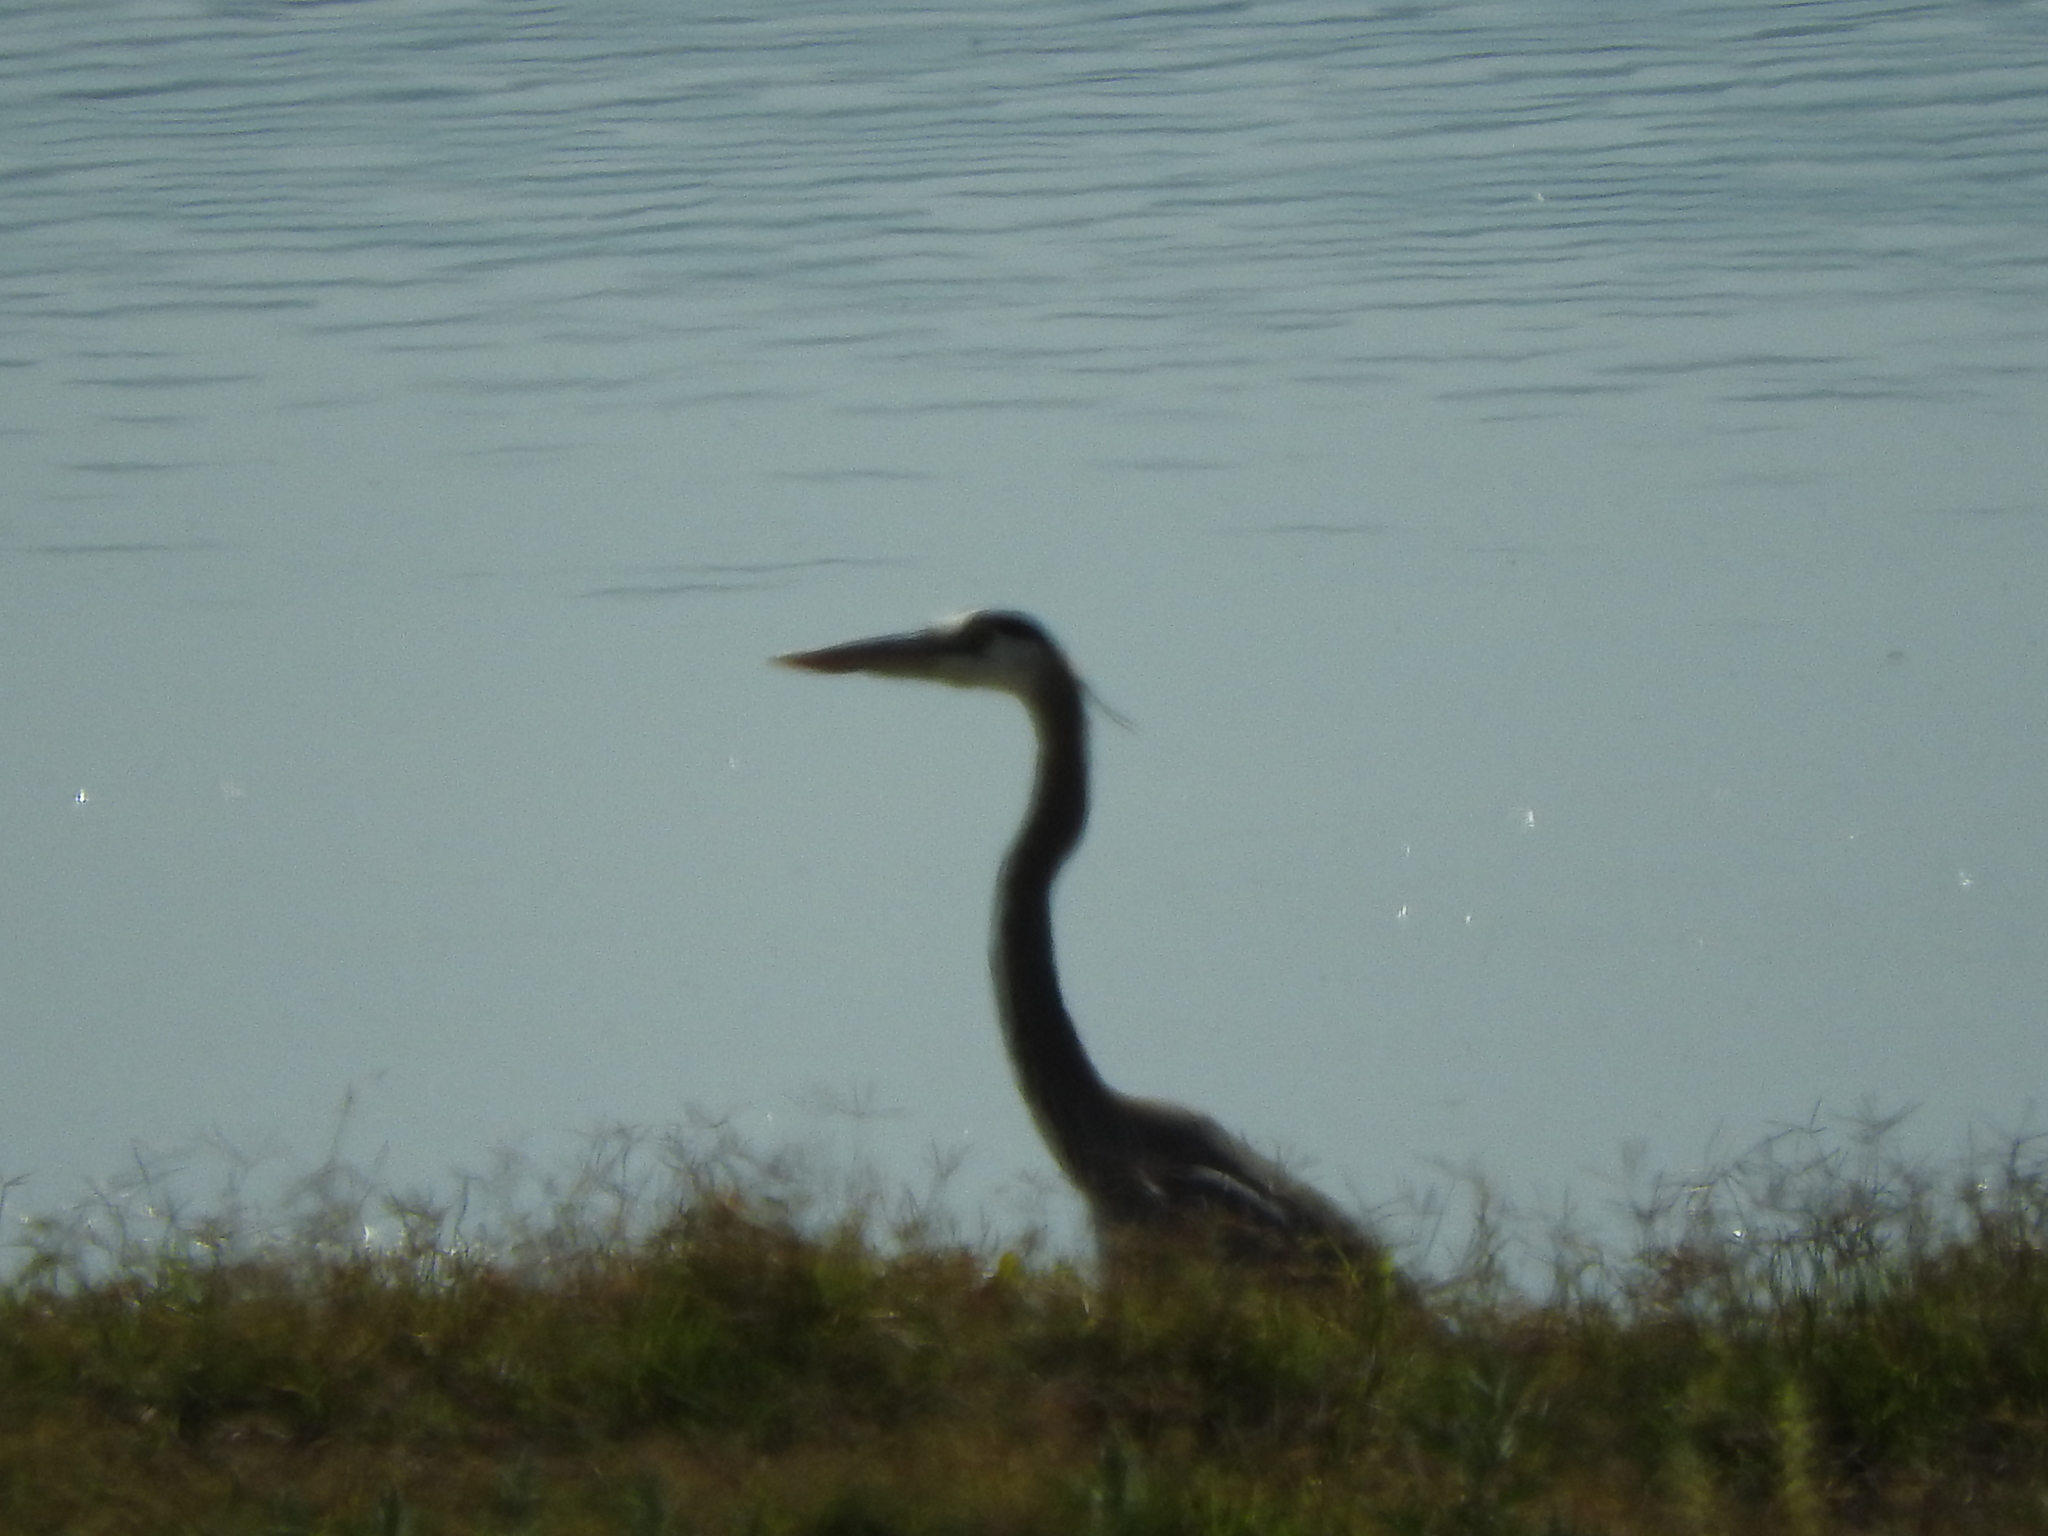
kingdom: Animalia
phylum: Chordata
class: Aves
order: Pelecaniformes
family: Ardeidae
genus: Ardea
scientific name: Ardea herodias
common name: Great blue heron
